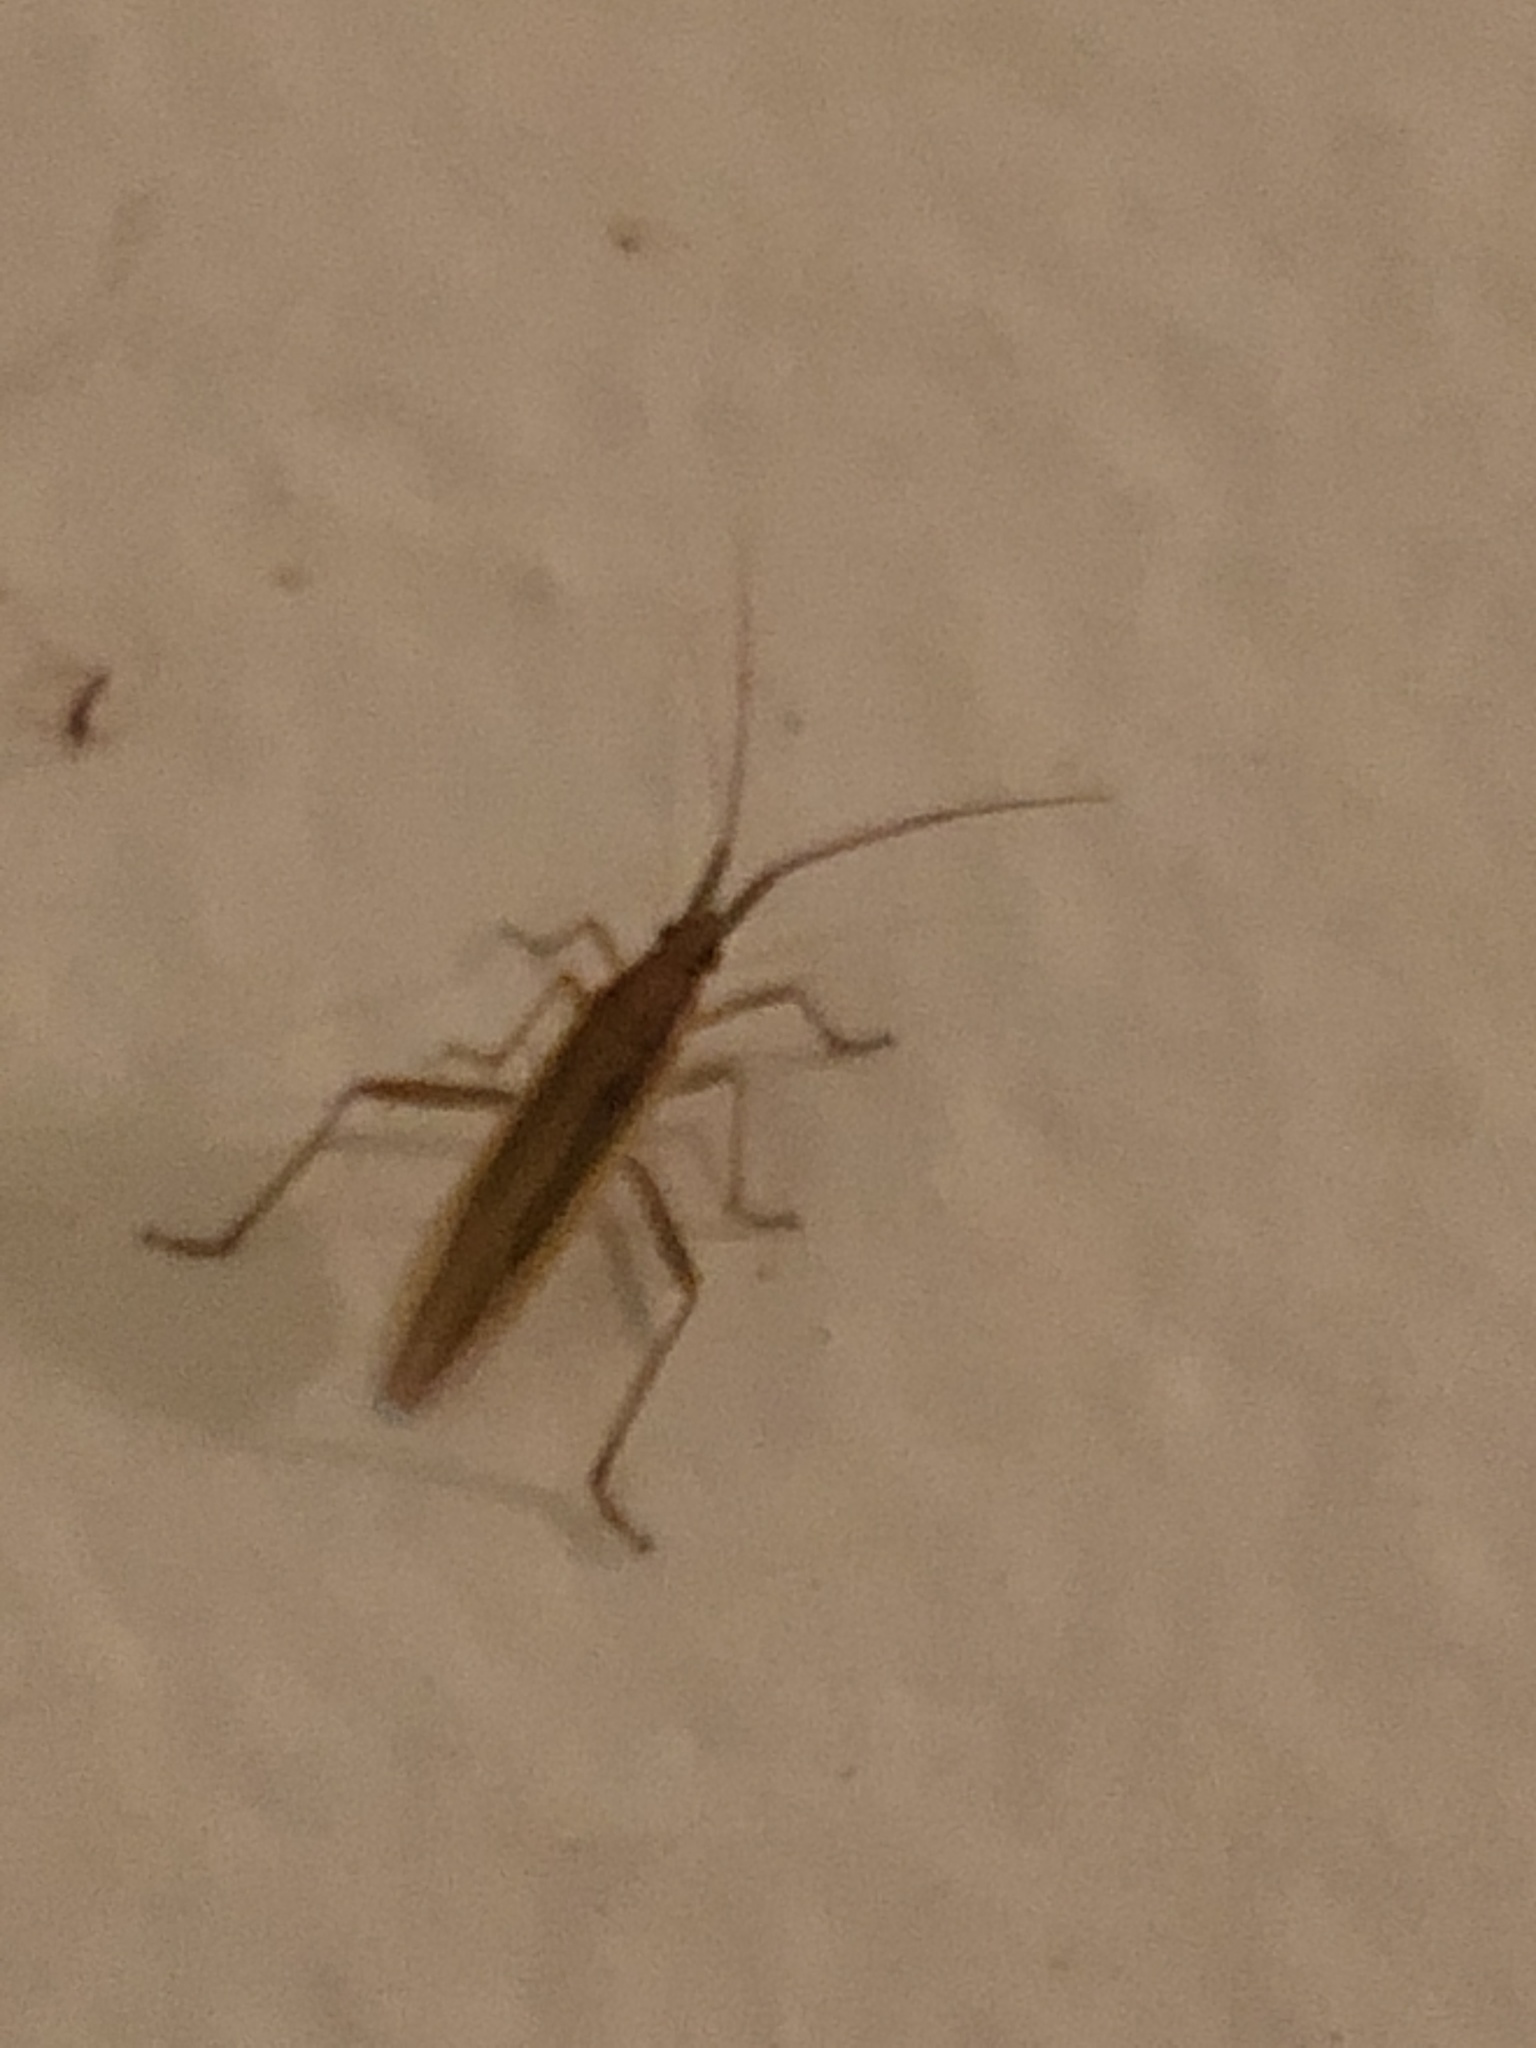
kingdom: Animalia
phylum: Arthropoda
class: Insecta
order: Hemiptera
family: Miridae
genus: Stenodema
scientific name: Stenodema trispinosa
